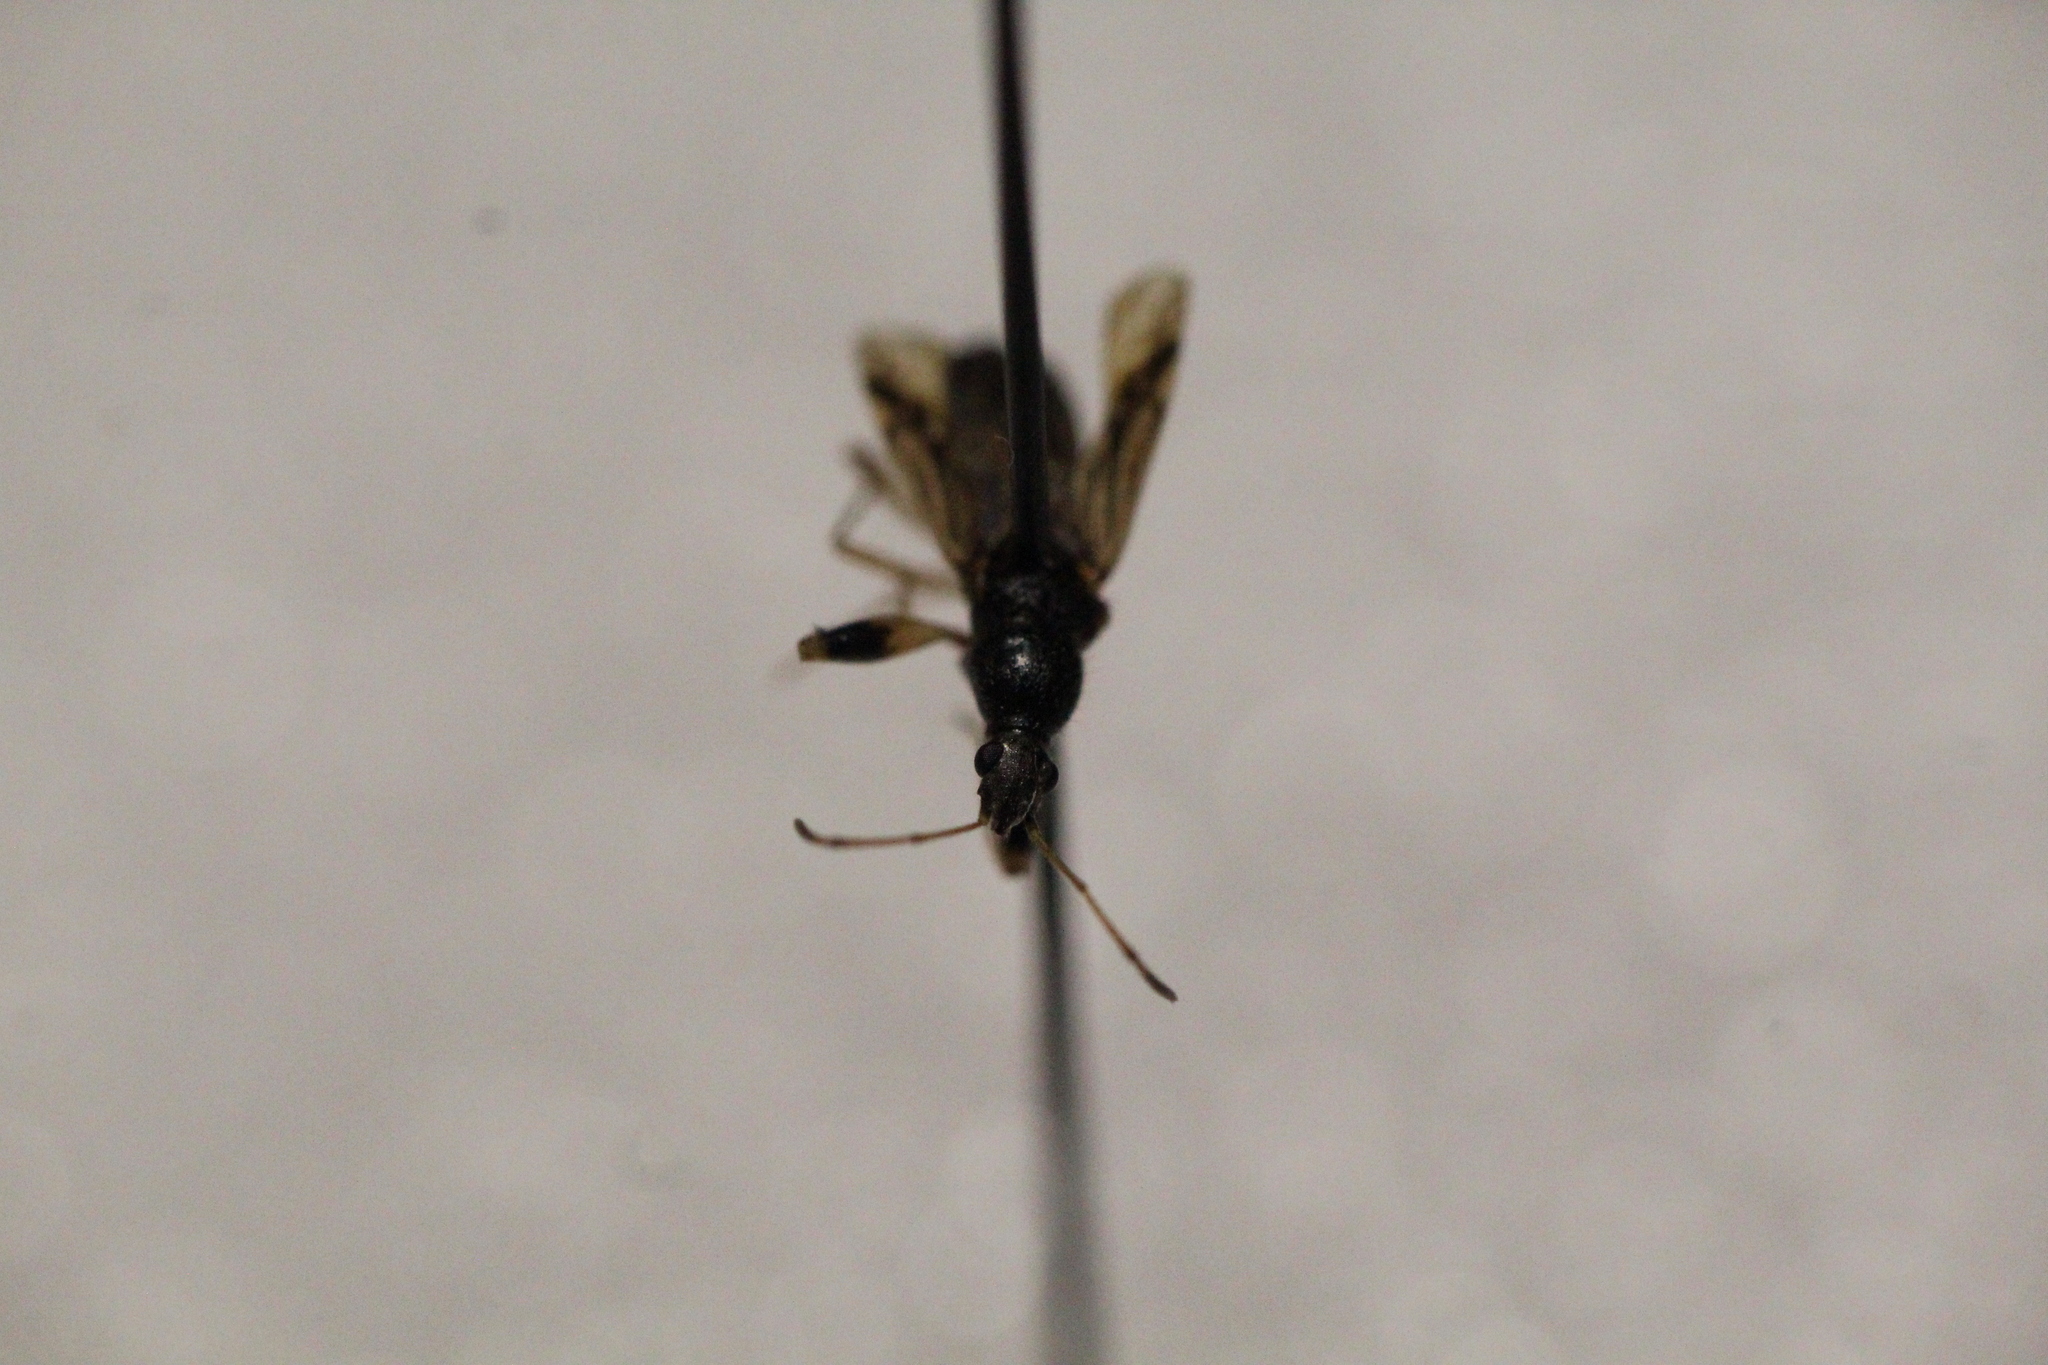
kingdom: Animalia
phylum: Arthropoda
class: Insecta
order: Hemiptera
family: Rhyparochromidae
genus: Paraparomius
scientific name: Paraparomius leptopoides
